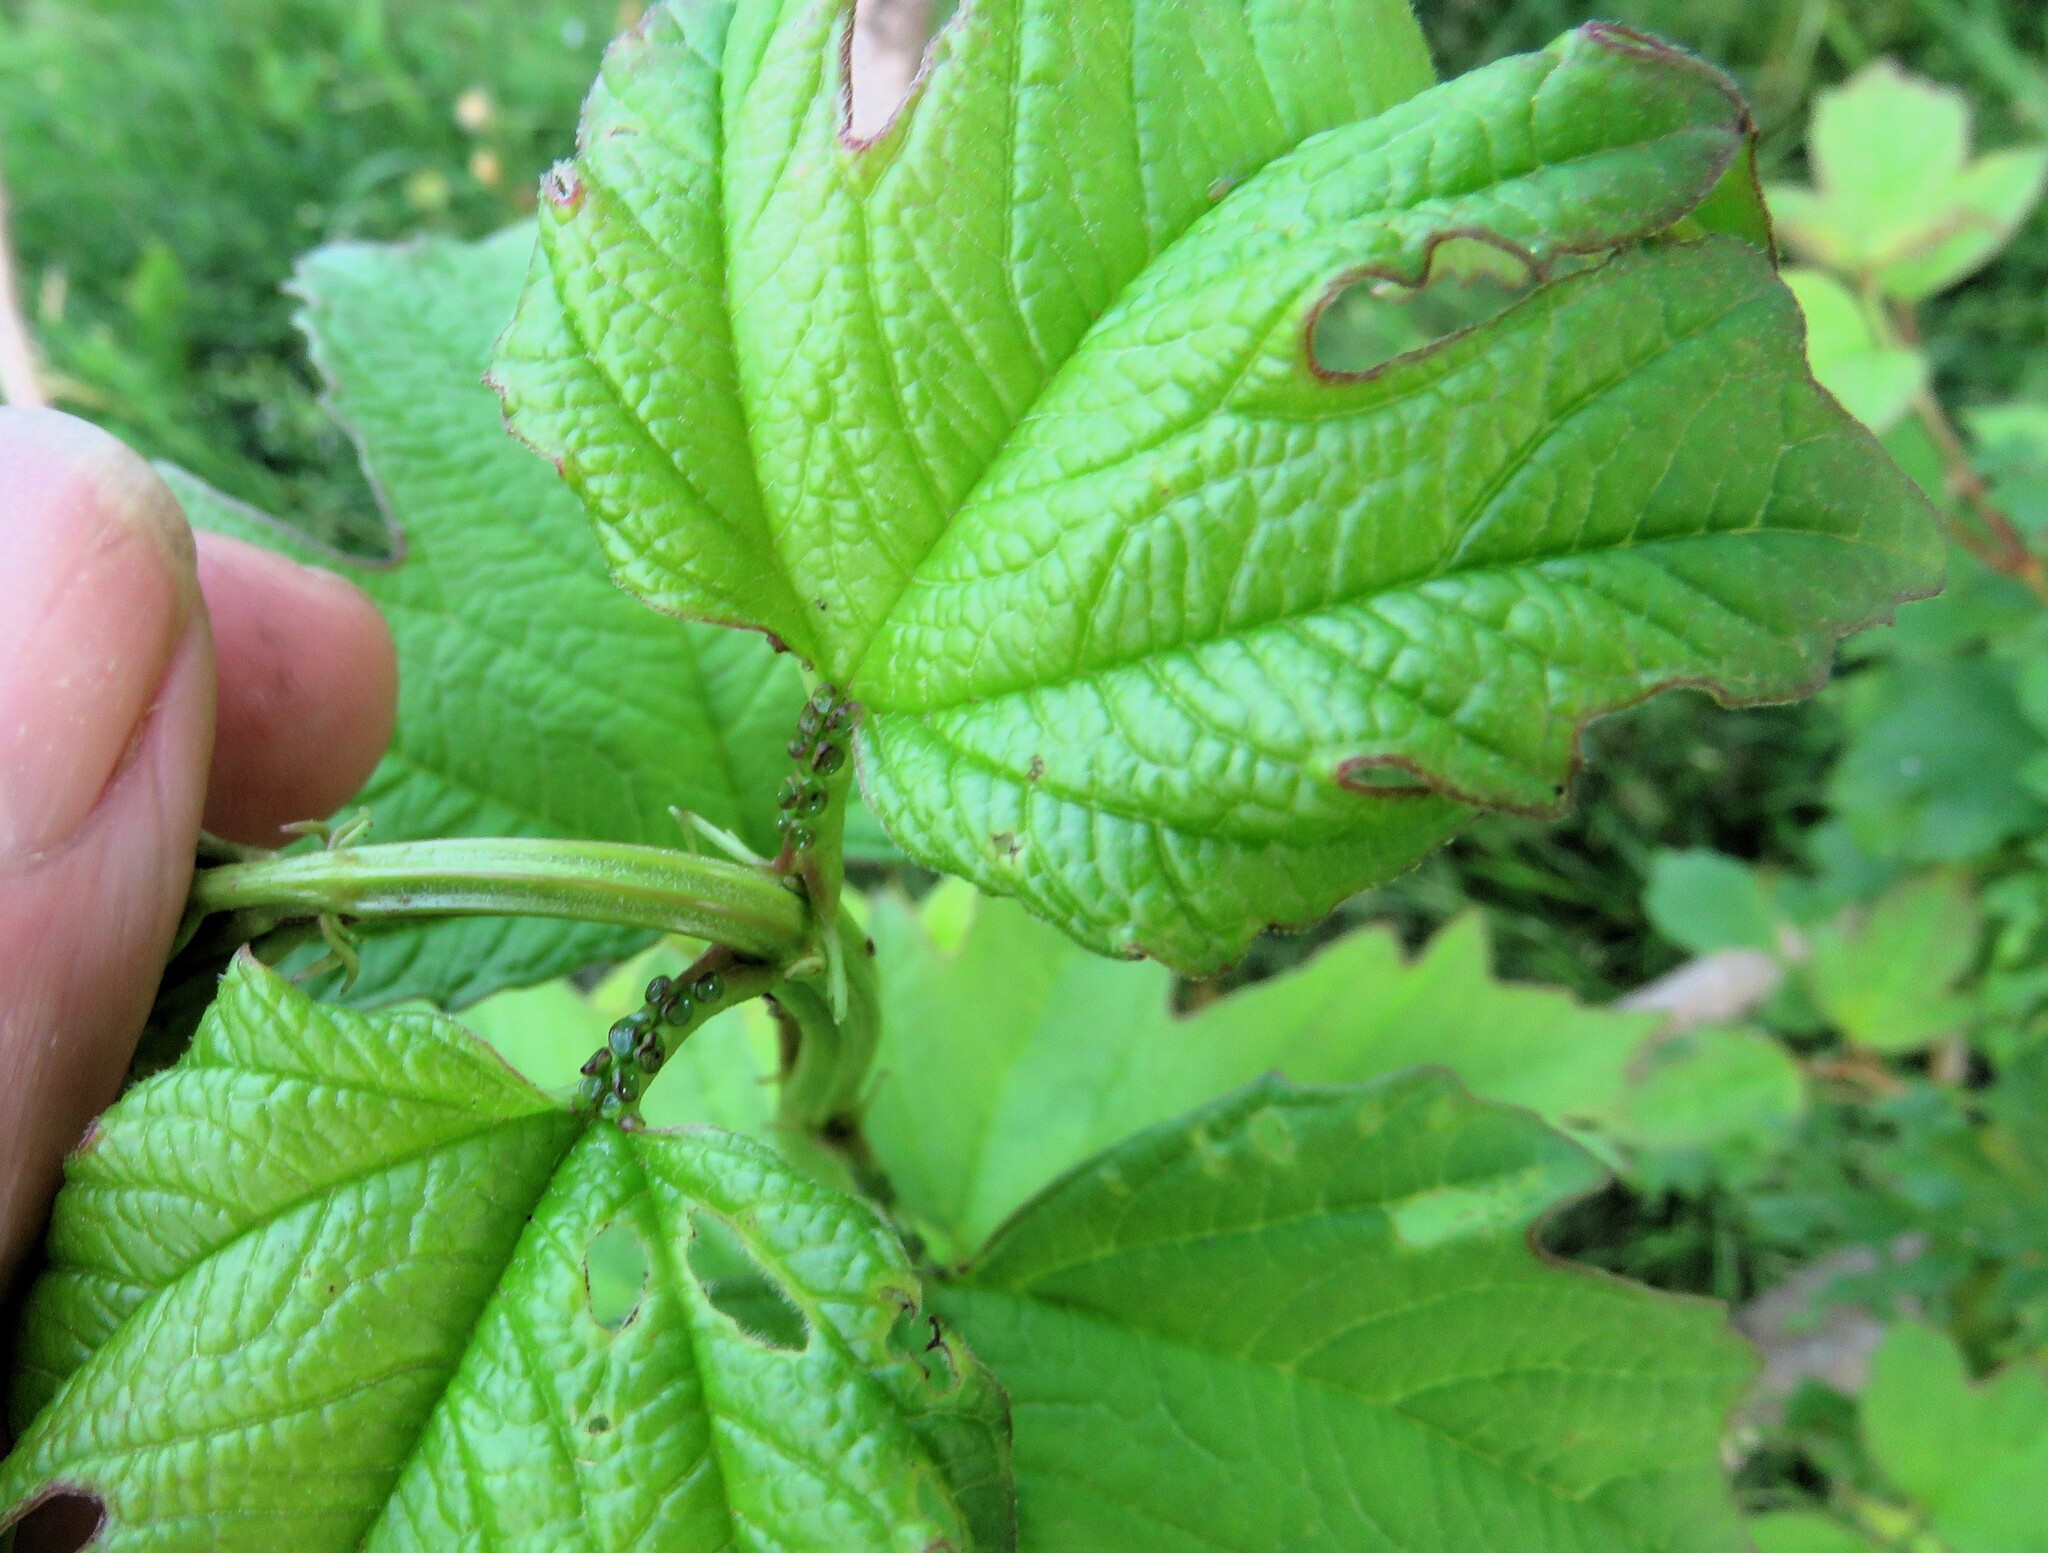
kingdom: Plantae
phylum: Tracheophyta
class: Magnoliopsida
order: Dipsacales
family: Viburnaceae
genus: Viburnum
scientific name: Viburnum opulus
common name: Guelder-rose
